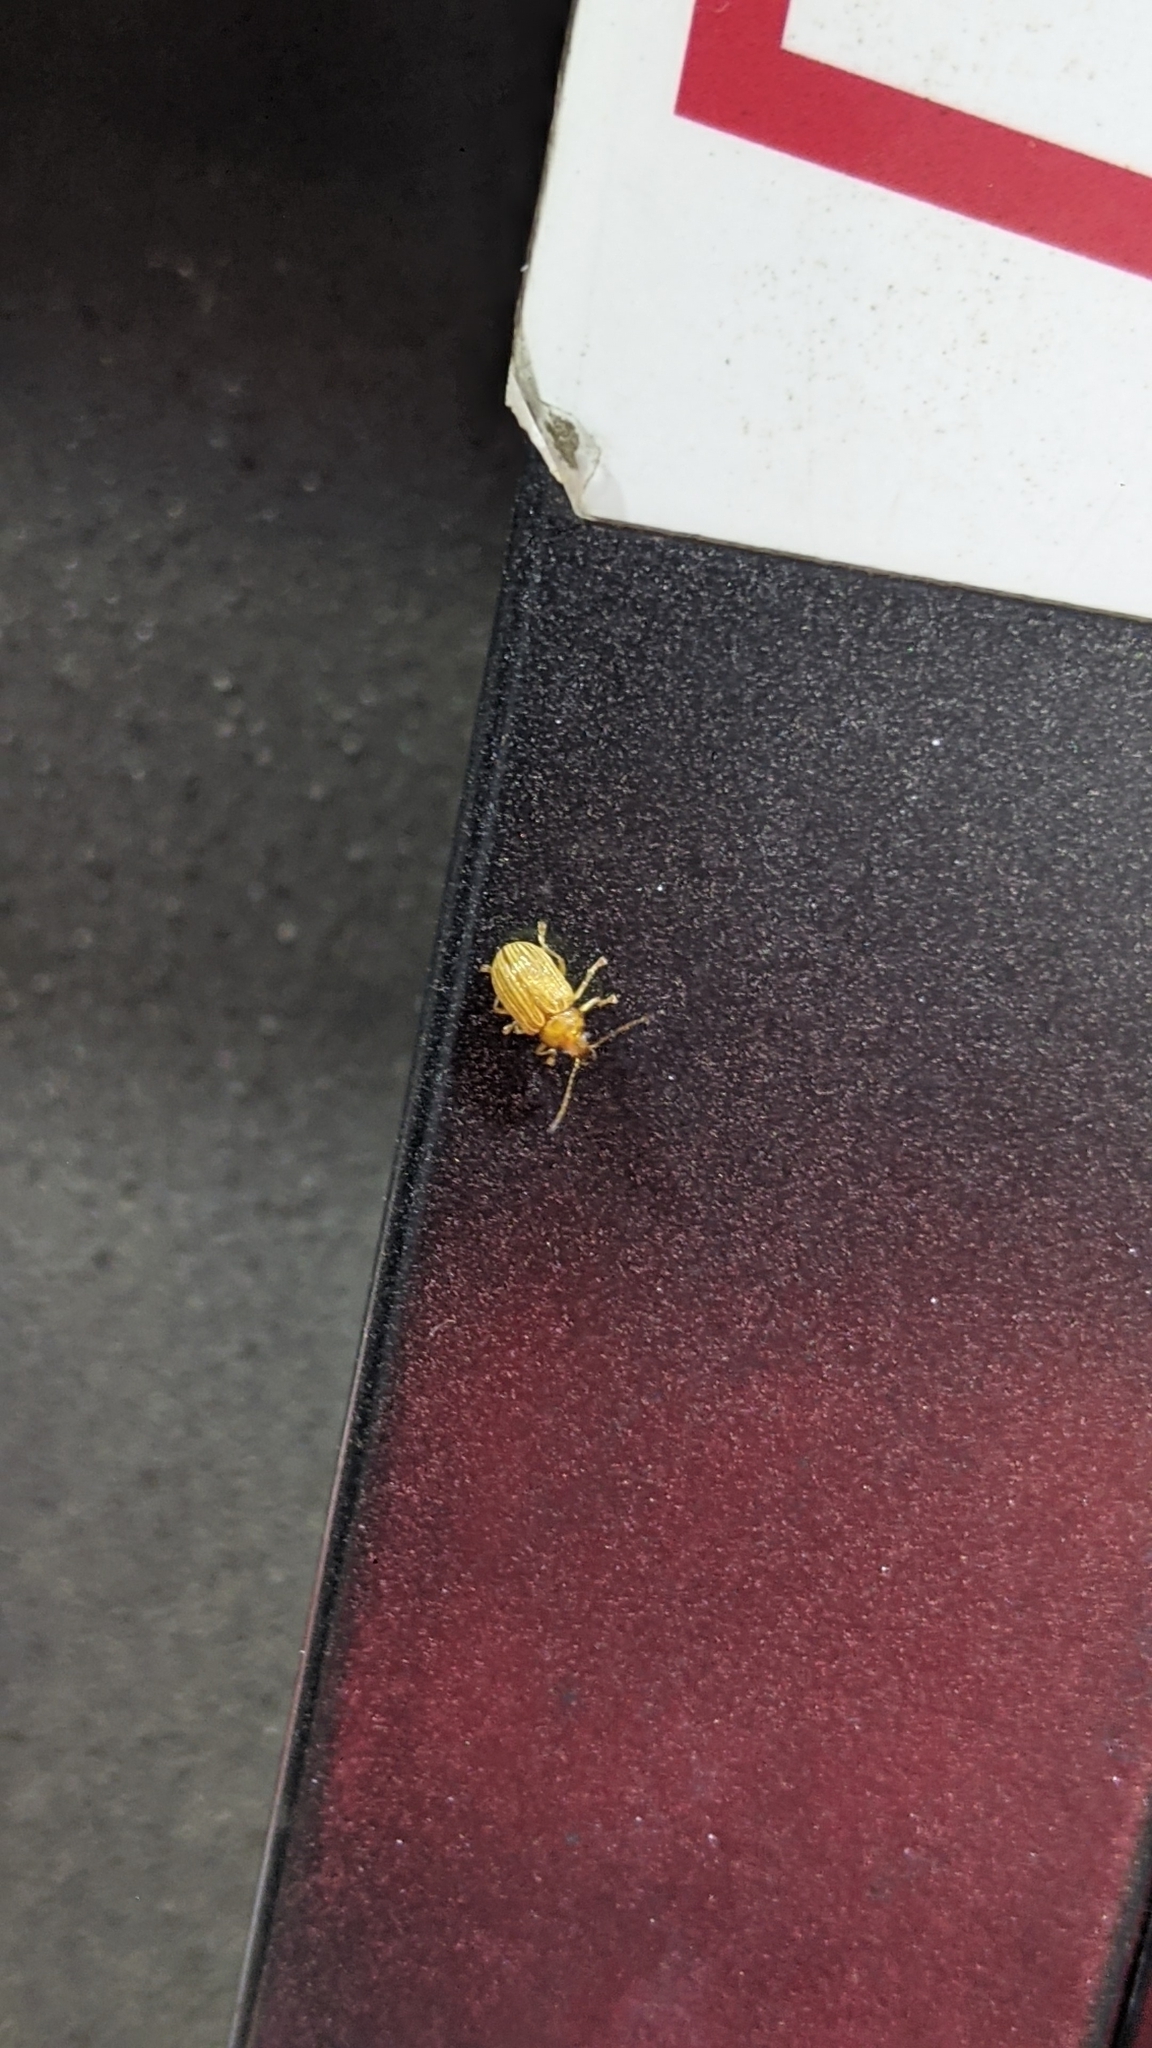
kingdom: Animalia
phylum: Arthropoda
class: Insecta
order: Coleoptera
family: Chrysomelidae
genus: Colaspis
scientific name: Colaspis brunnea
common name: Grape colaspis
